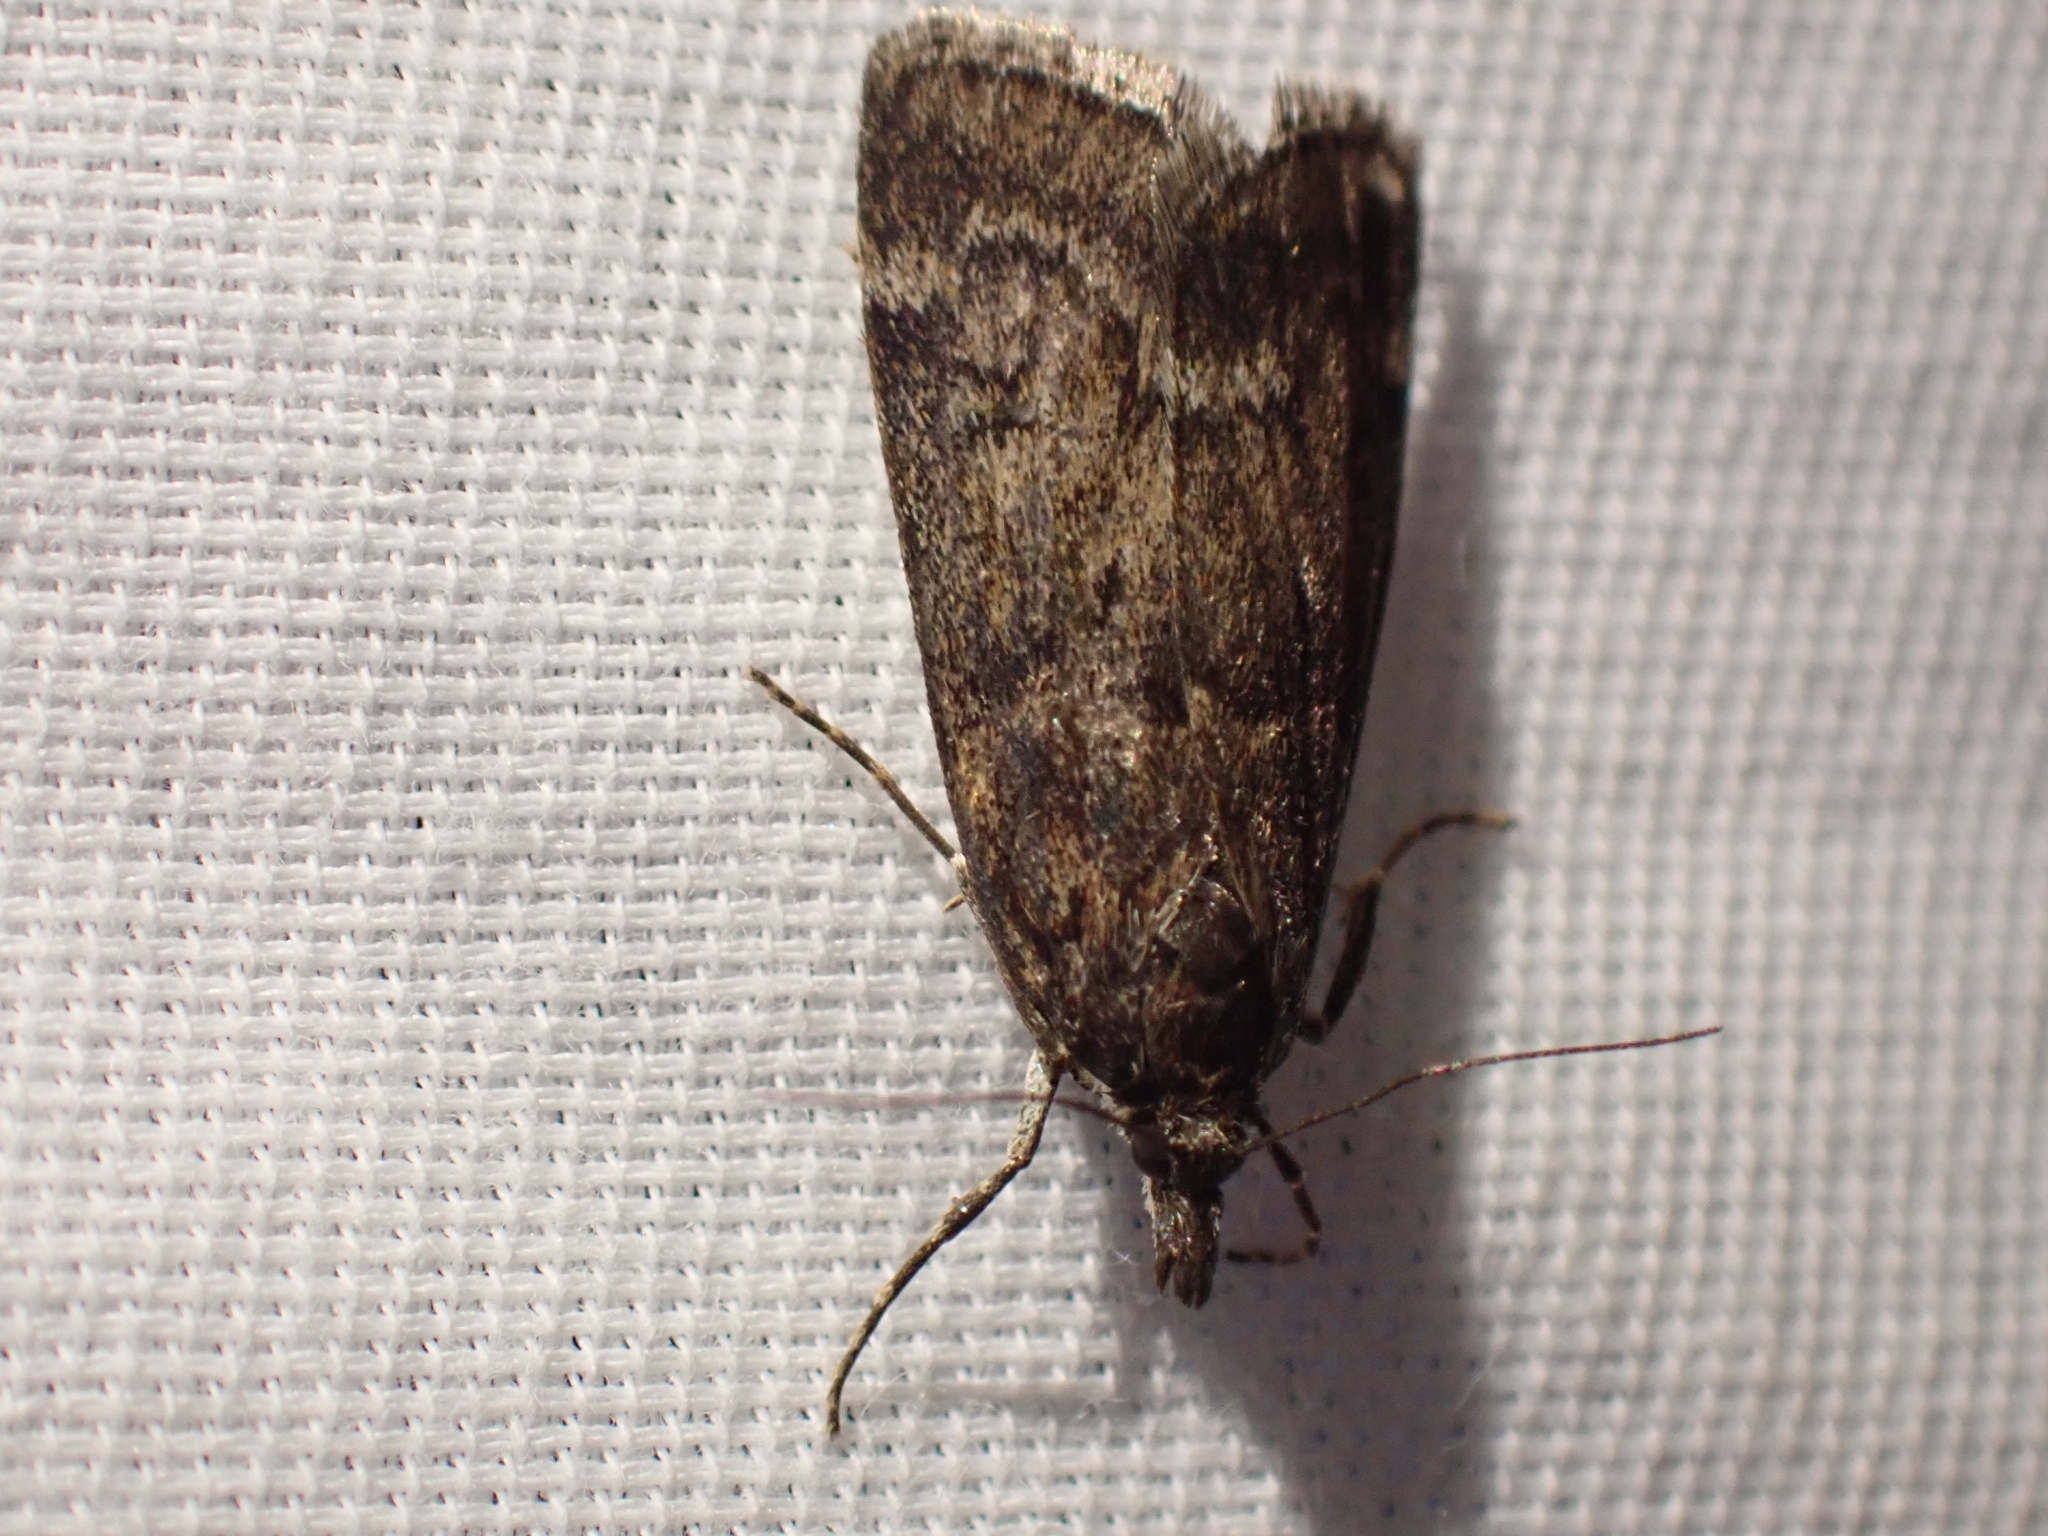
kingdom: Animalia
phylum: Arthropoda
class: Insecta
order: Lepidoptera
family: Crambidae
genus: Gesneria
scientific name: Gesneria centuriella
